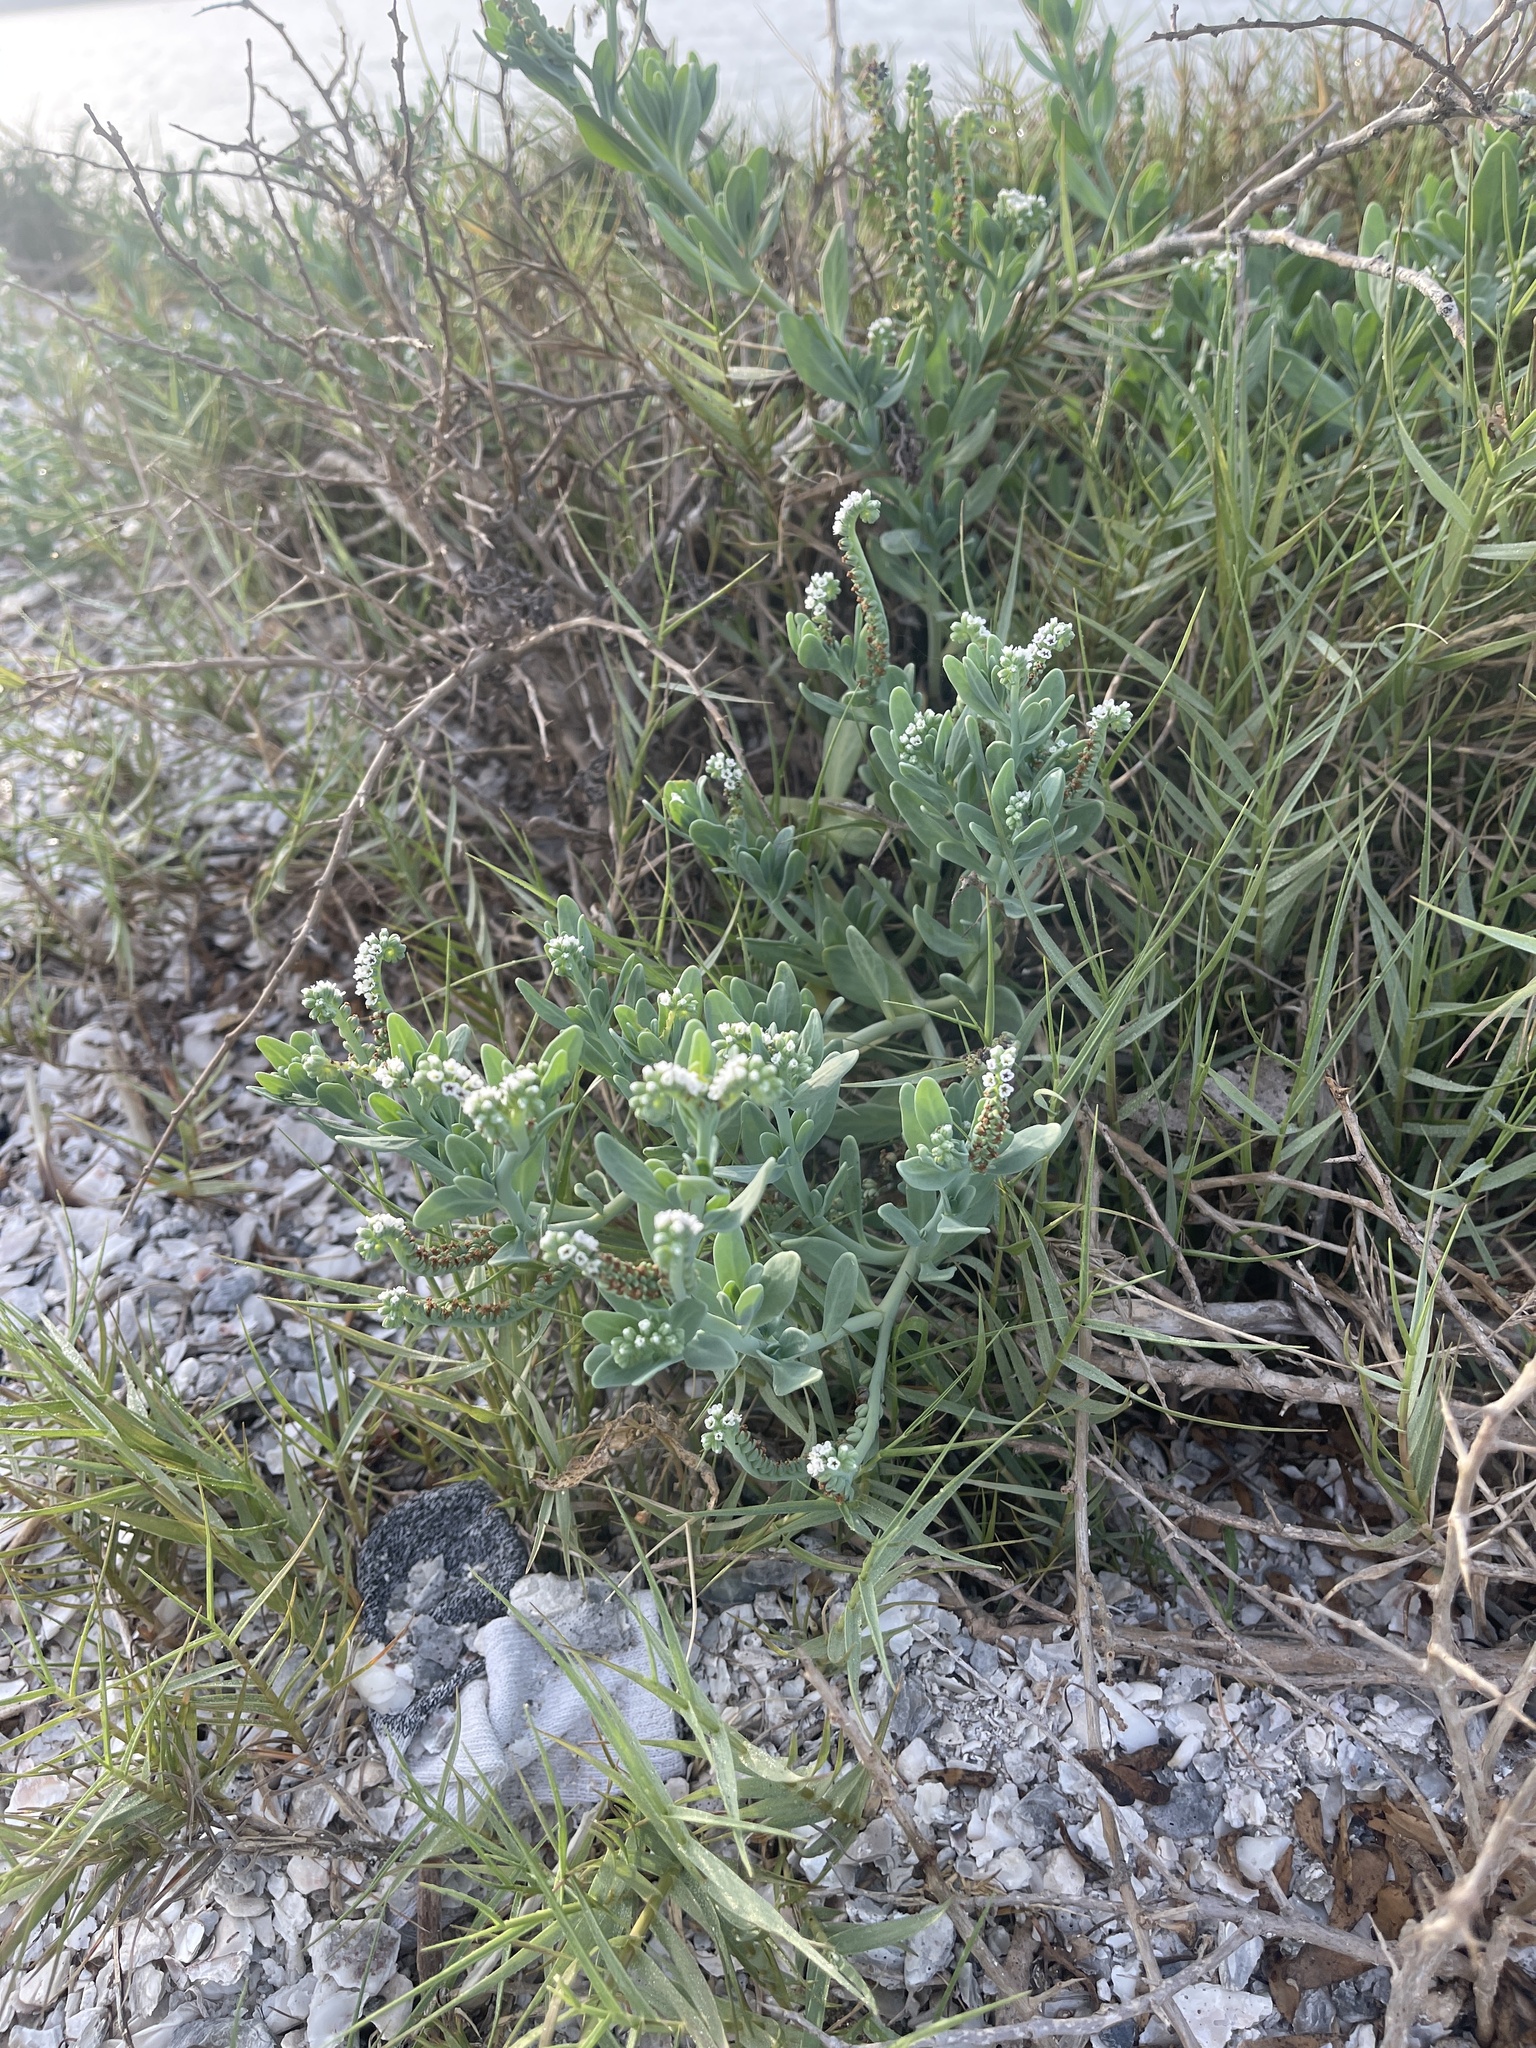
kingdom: Plantae
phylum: Tracheophyta
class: Magnoliopsida
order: Boraginales
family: Heliotropiaceae
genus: Heliotropium
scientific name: Heliotropium curassavicum
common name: Seaside heliotrope
